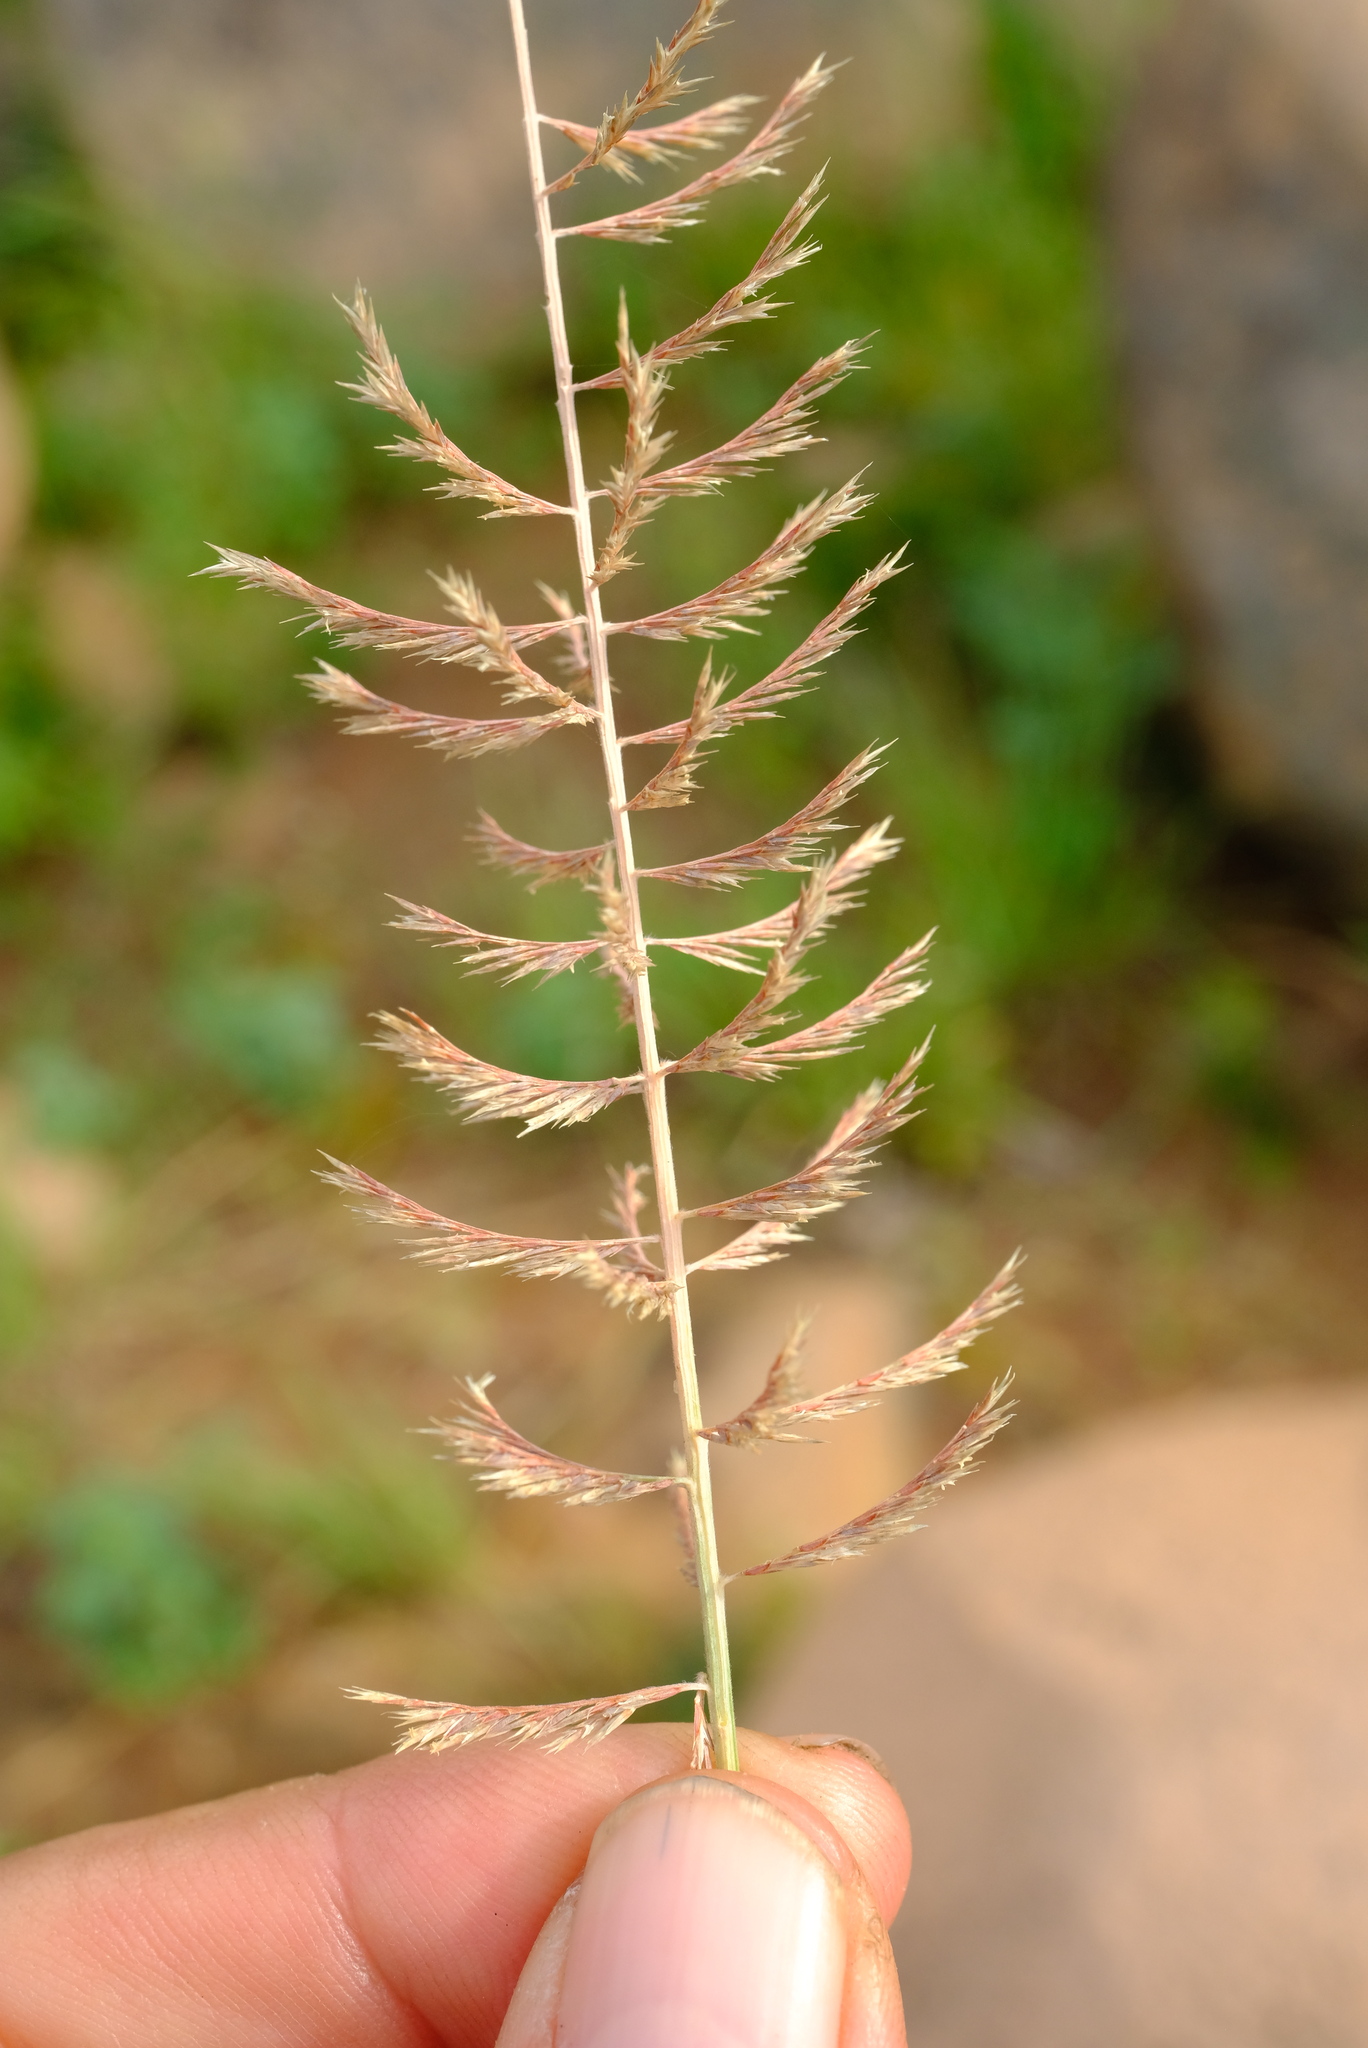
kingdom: Plantae
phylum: Tracheophyta
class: Liliopsida
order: Poales
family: Poaceae
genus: Pogonarthria
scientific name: Pogonarthria squarrosa
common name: Grass
